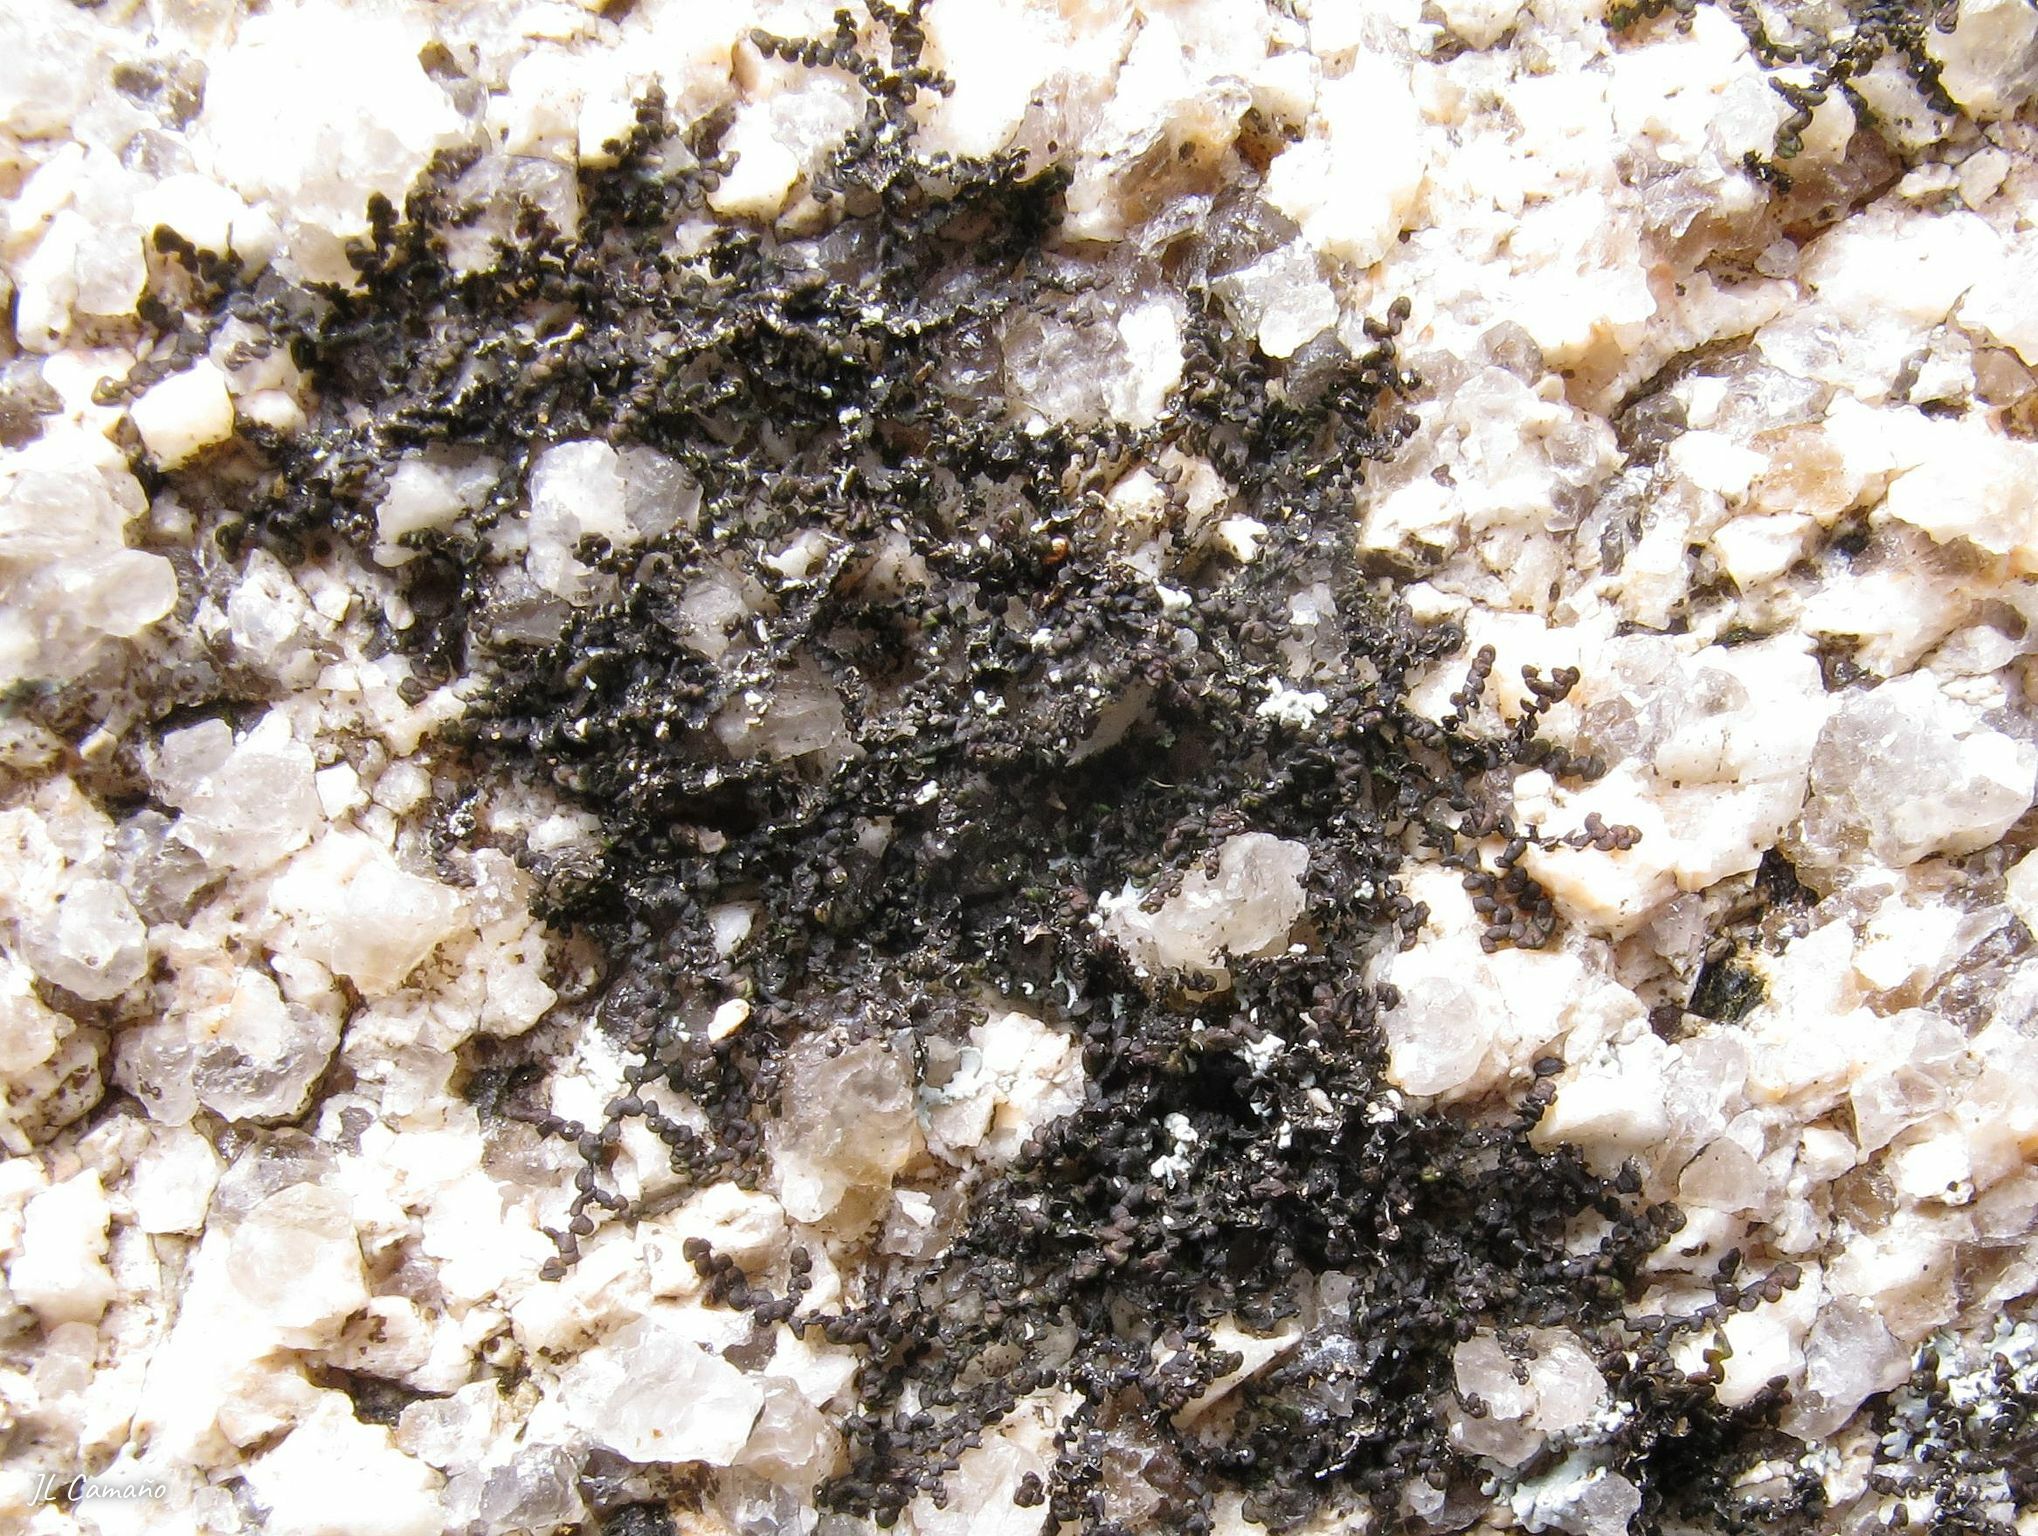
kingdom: Plantae
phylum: Marchantiophyta
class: Jungermanniopsida
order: Porellales
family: Frullaniaceae
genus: Frullania
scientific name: Frullania dilatata
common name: Dilated scalewort
